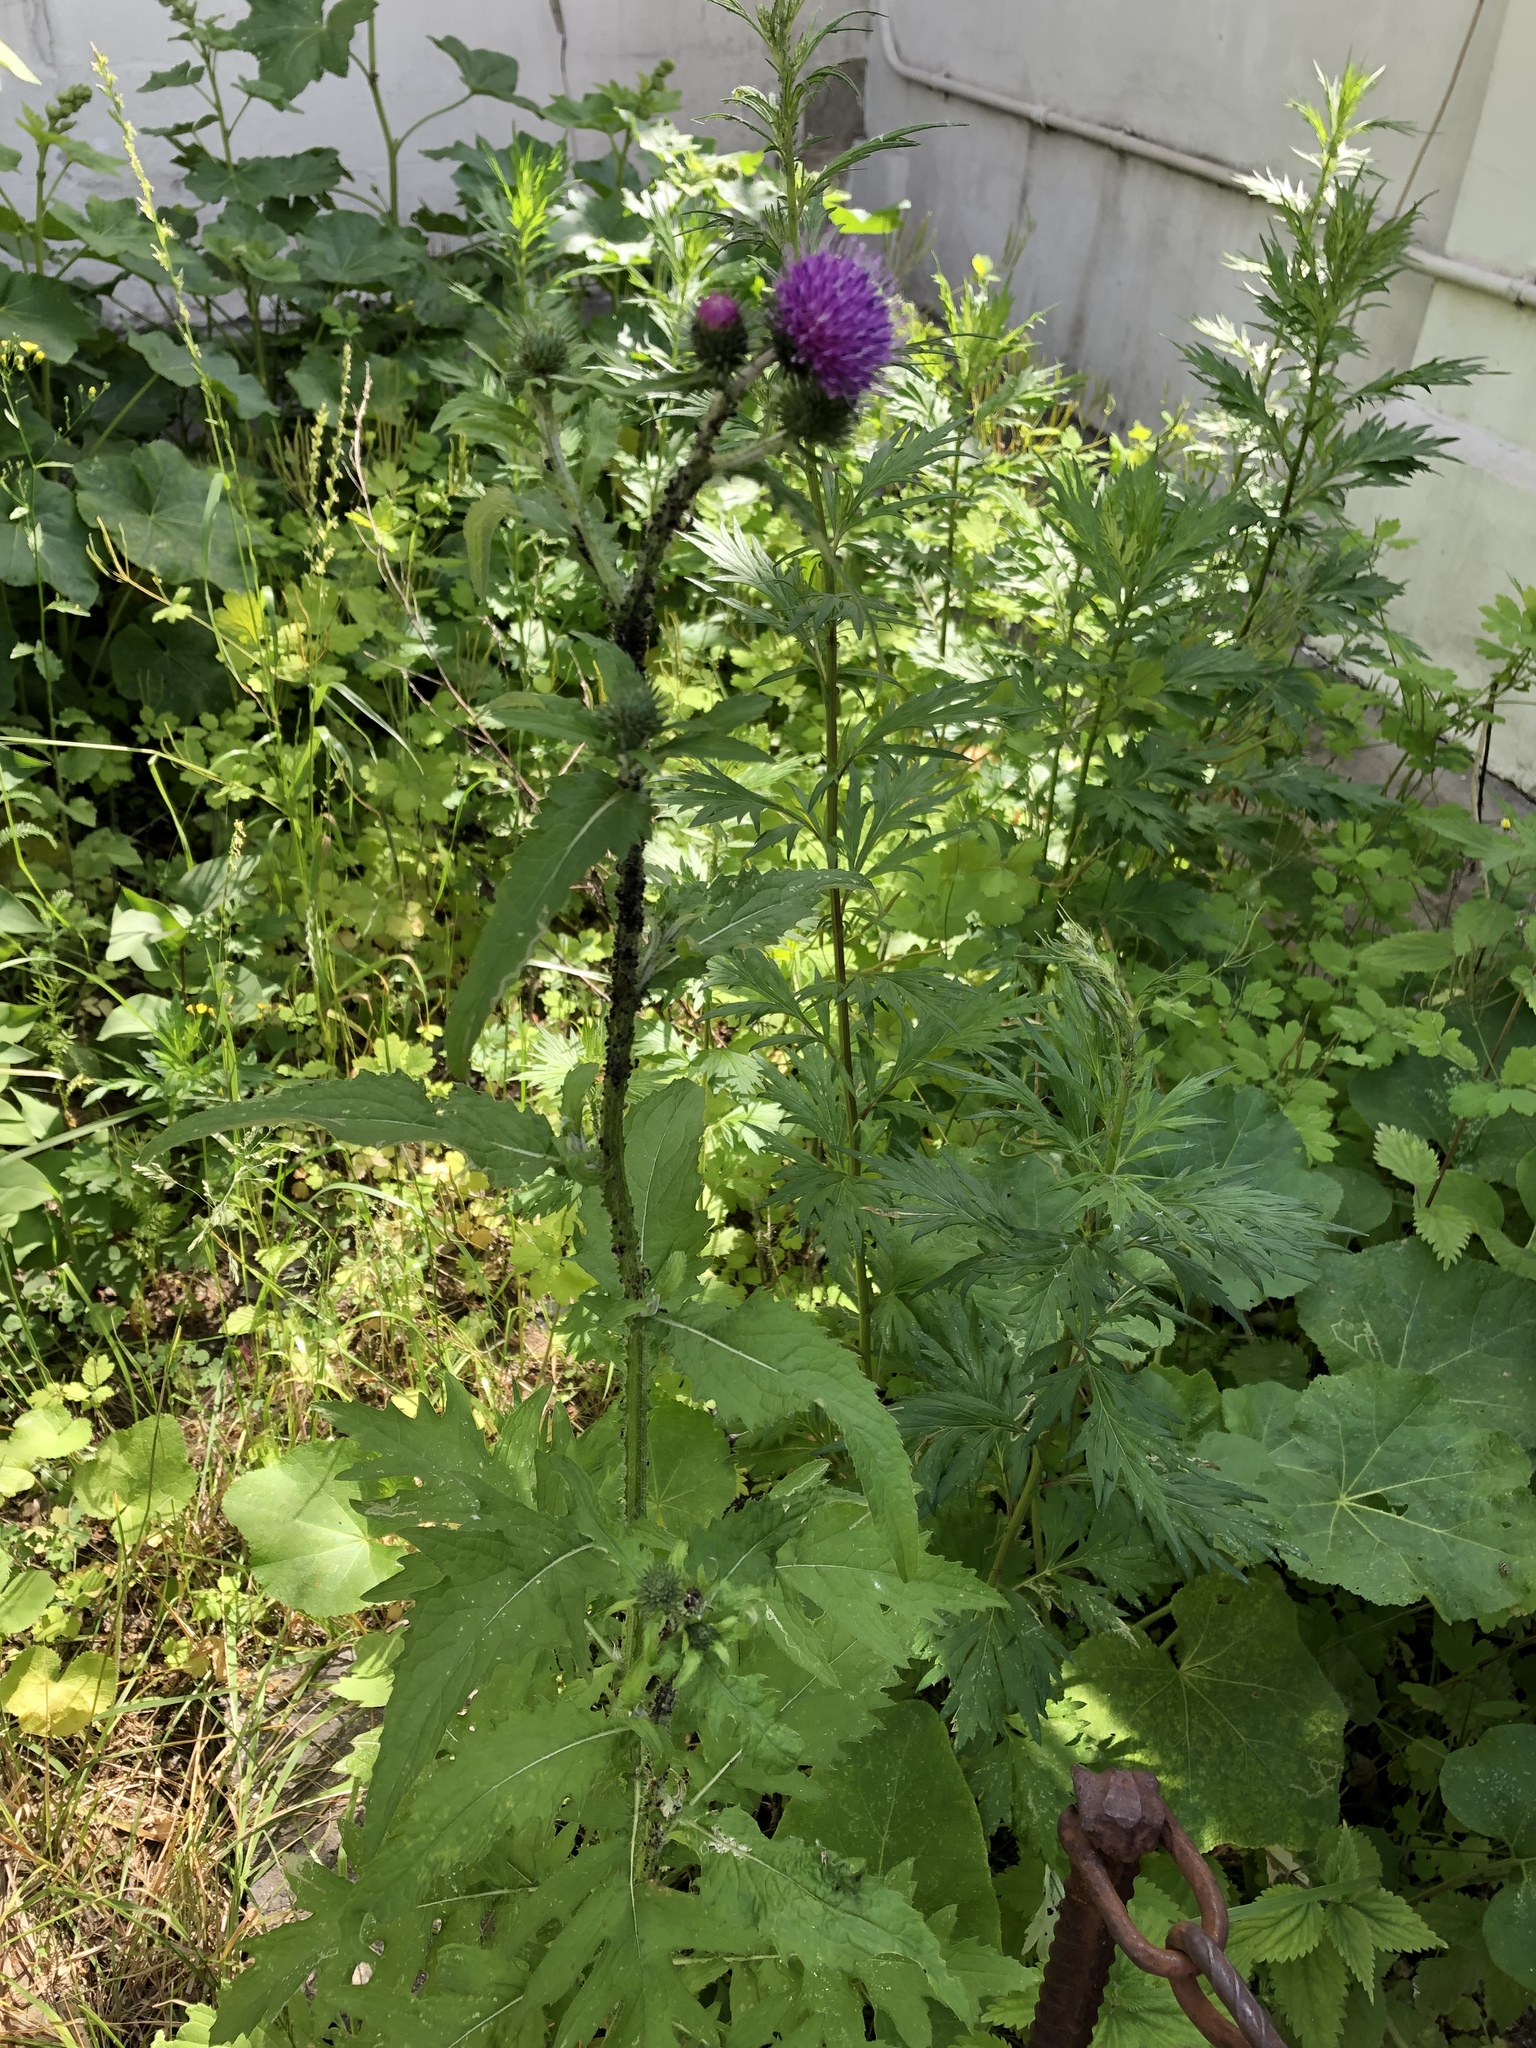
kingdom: Plantae
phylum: Tracheophyta
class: Magnoliopsida
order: Asterales
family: Asteraceae
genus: Carduus
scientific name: Carduus crispus
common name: Welted thistle
